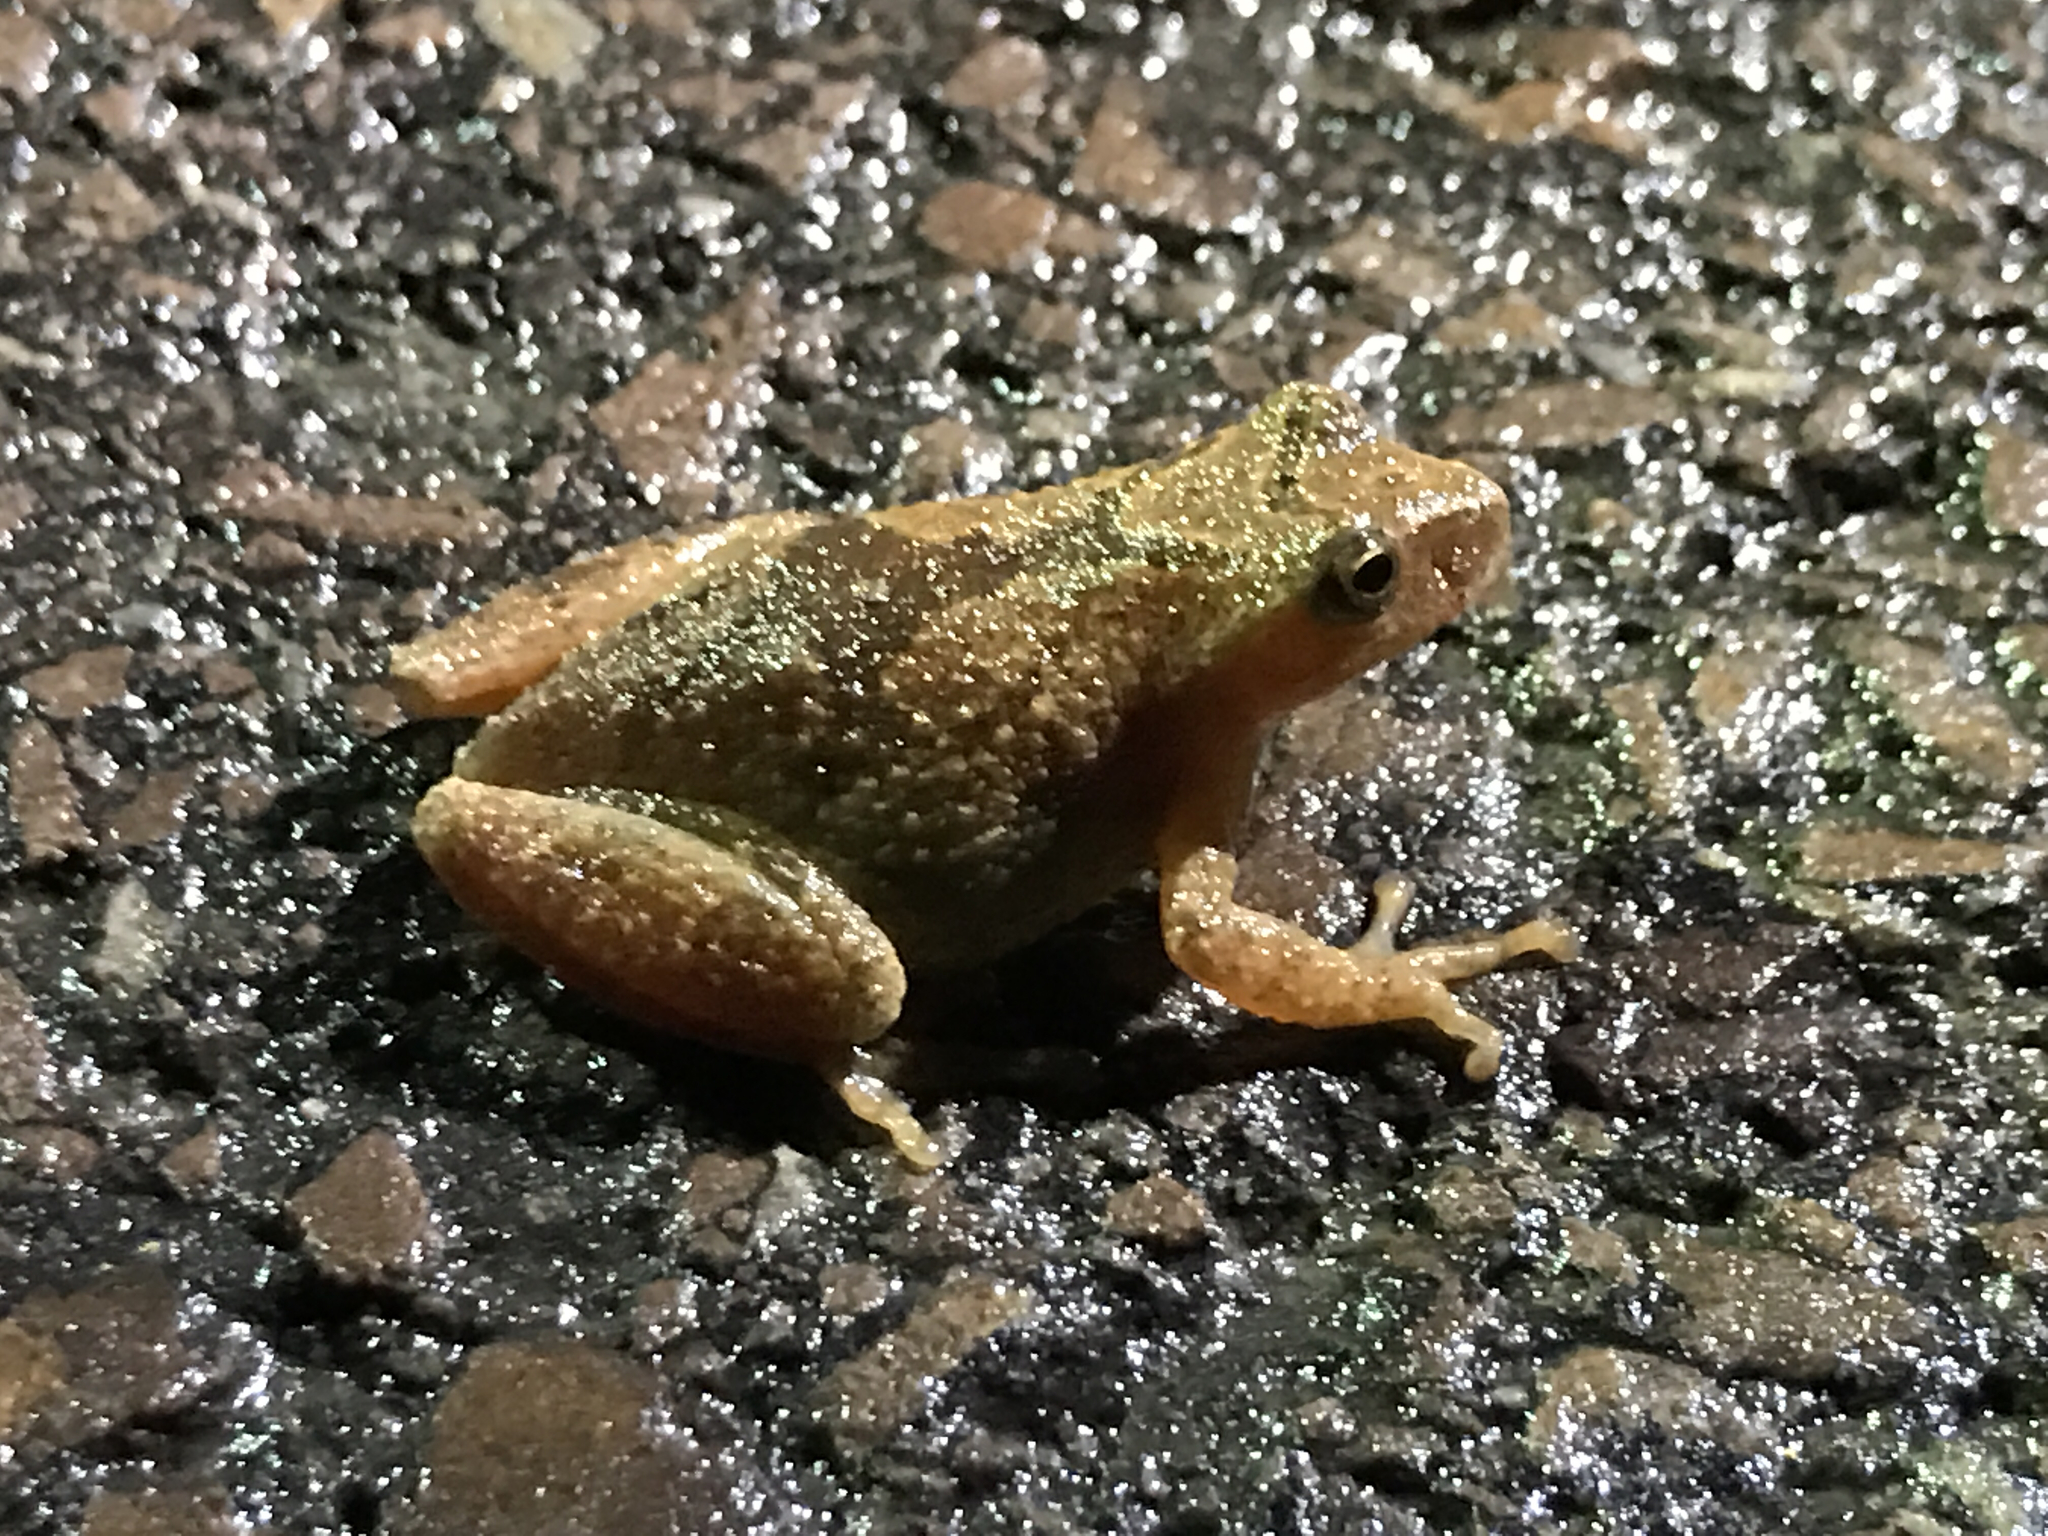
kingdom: Animalia
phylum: Chordata
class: Amphibia
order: Anura
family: Hylidae
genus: Pseudacris
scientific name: Pseudacris crucifer
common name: Spring peeper
